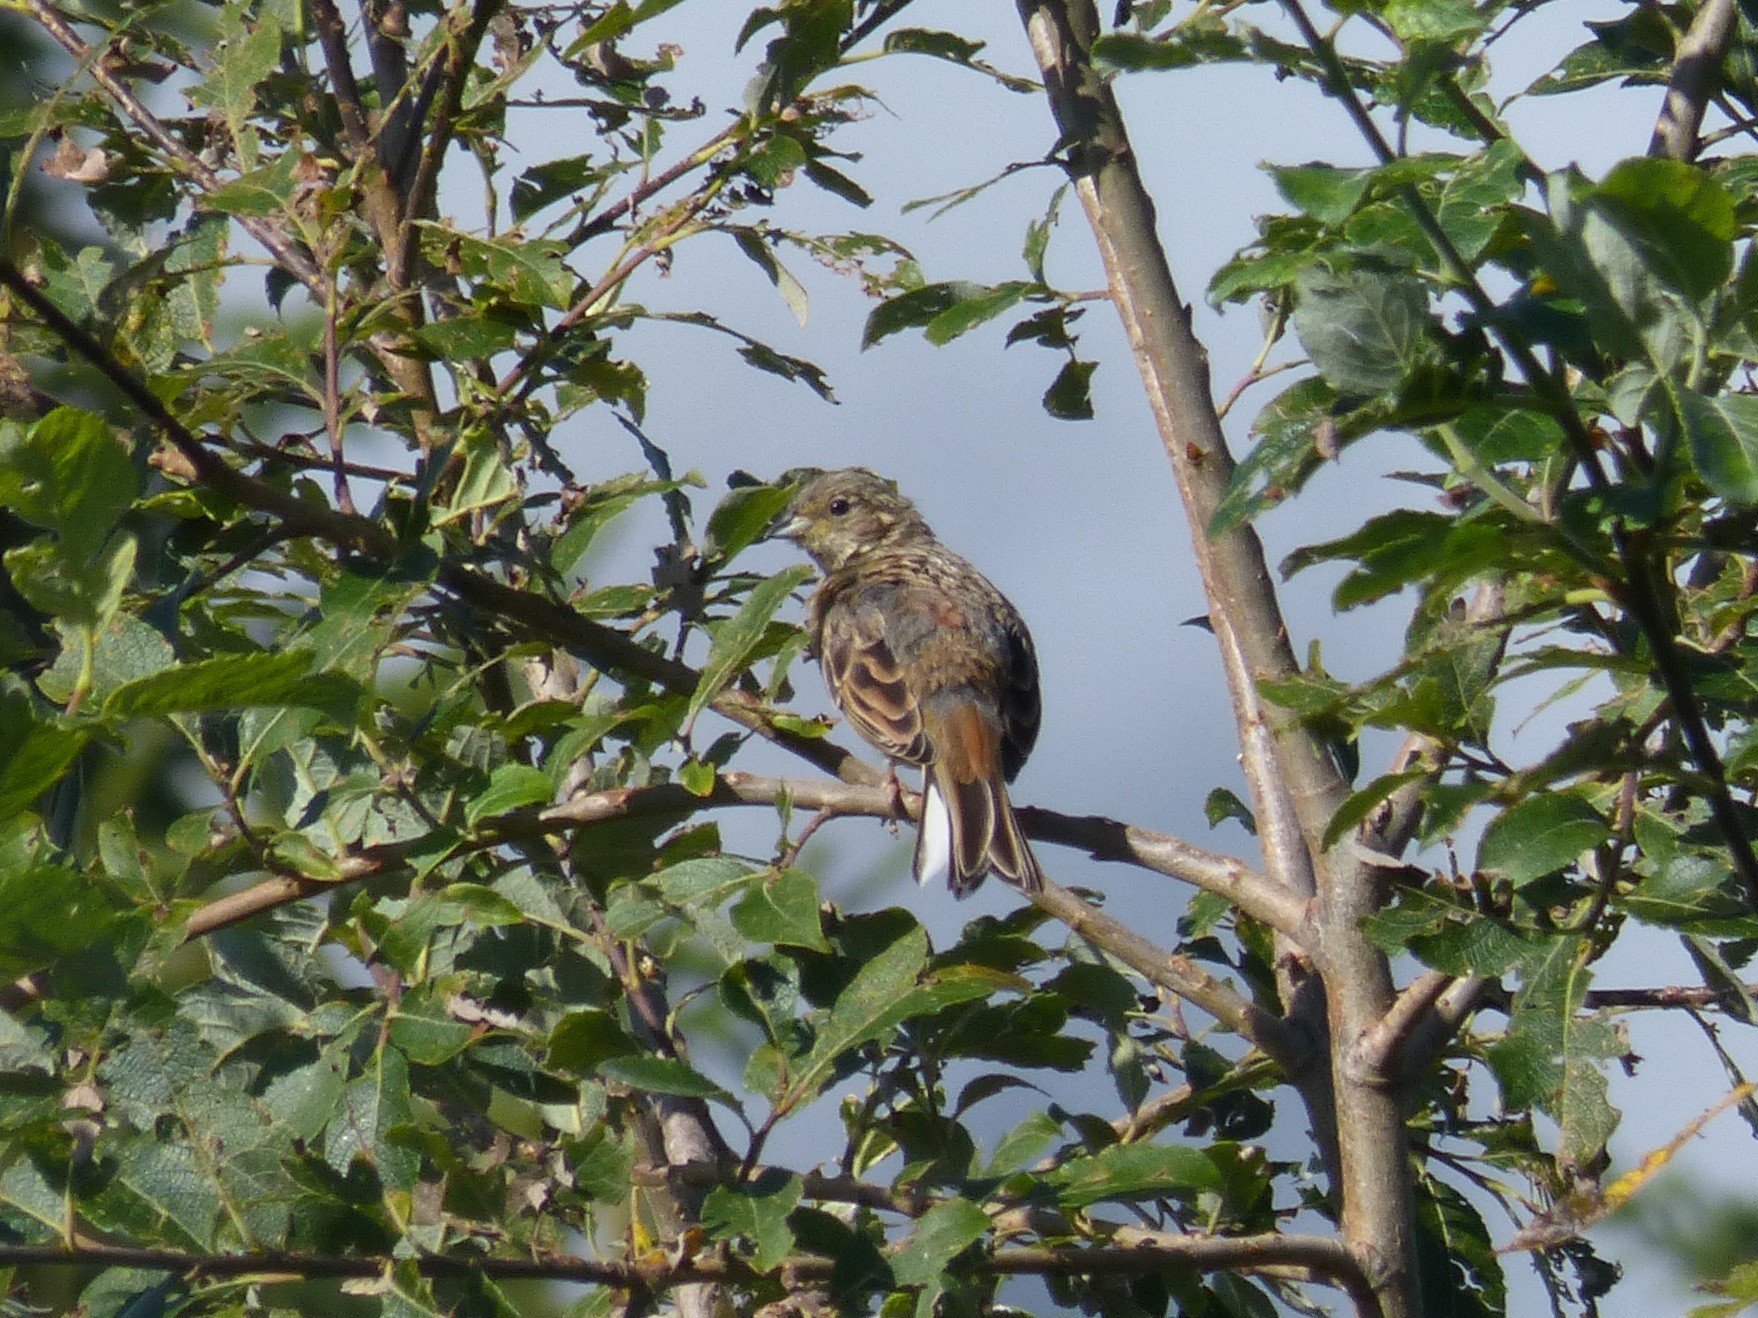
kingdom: Animalia
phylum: Chordata
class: Aves
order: Passeriformes
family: Emberizidae
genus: Emberiza
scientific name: Emberiza citrinella
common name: Yellowhammer
